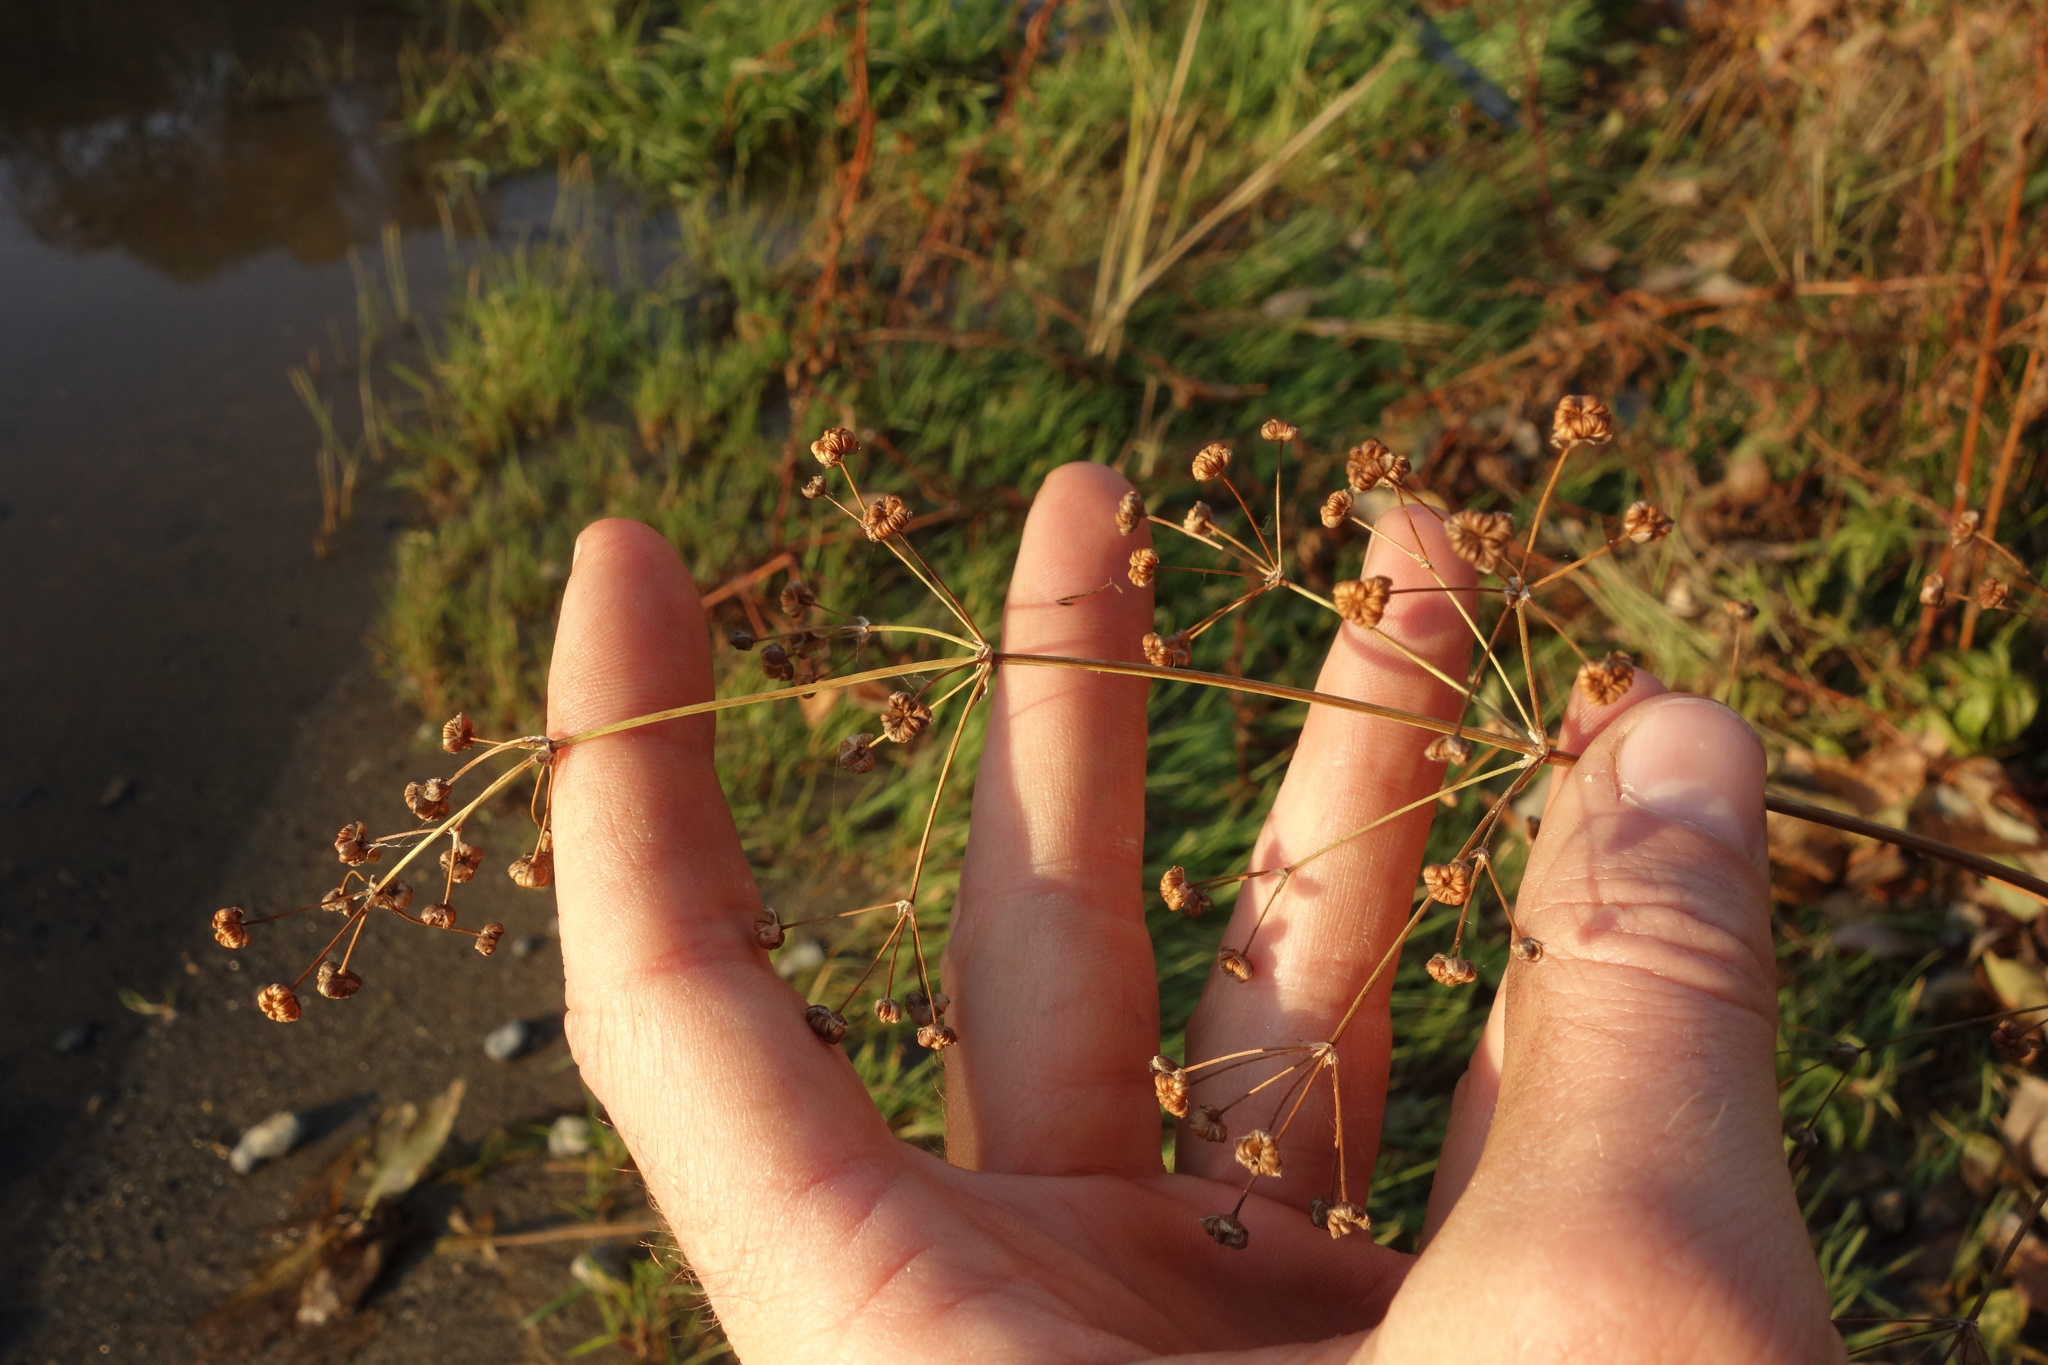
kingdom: Plantae
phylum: Tracheophyta
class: Liliopsida
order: Alismatales
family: Alismataceae
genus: Alisma
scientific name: Alisma plantago-aquatica
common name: Water-plantain
